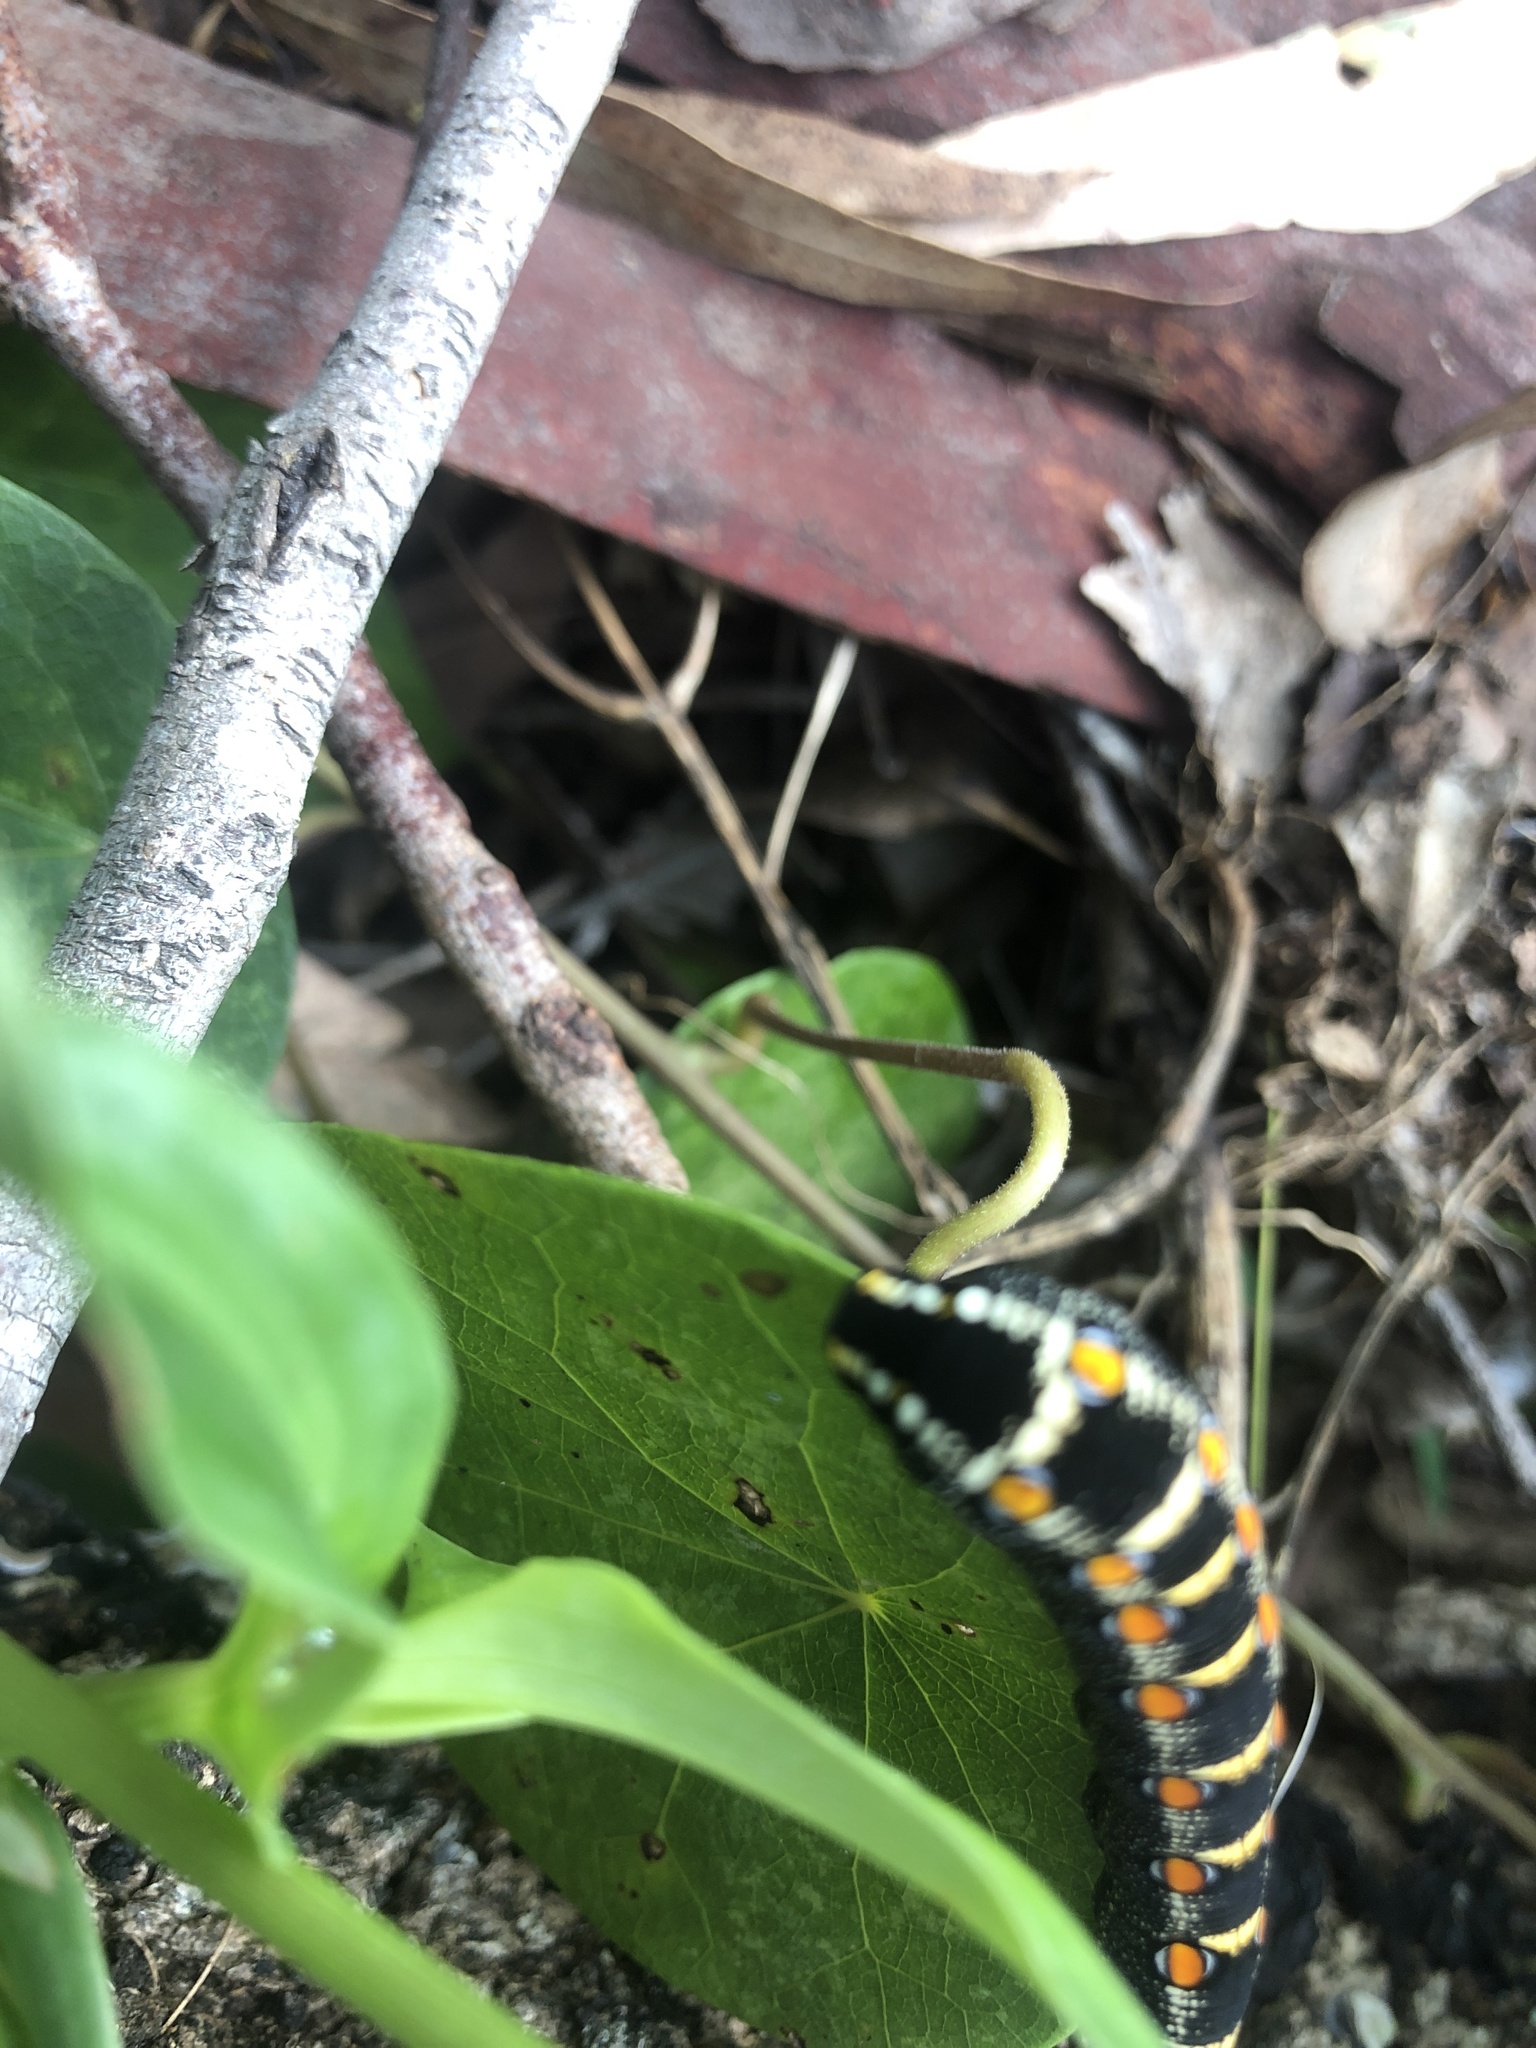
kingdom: Animalia
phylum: Arthropoda
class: Insecta
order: Lepidoptera
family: Sphingidae
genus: Theretra
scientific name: Theretra oldenlandiae
